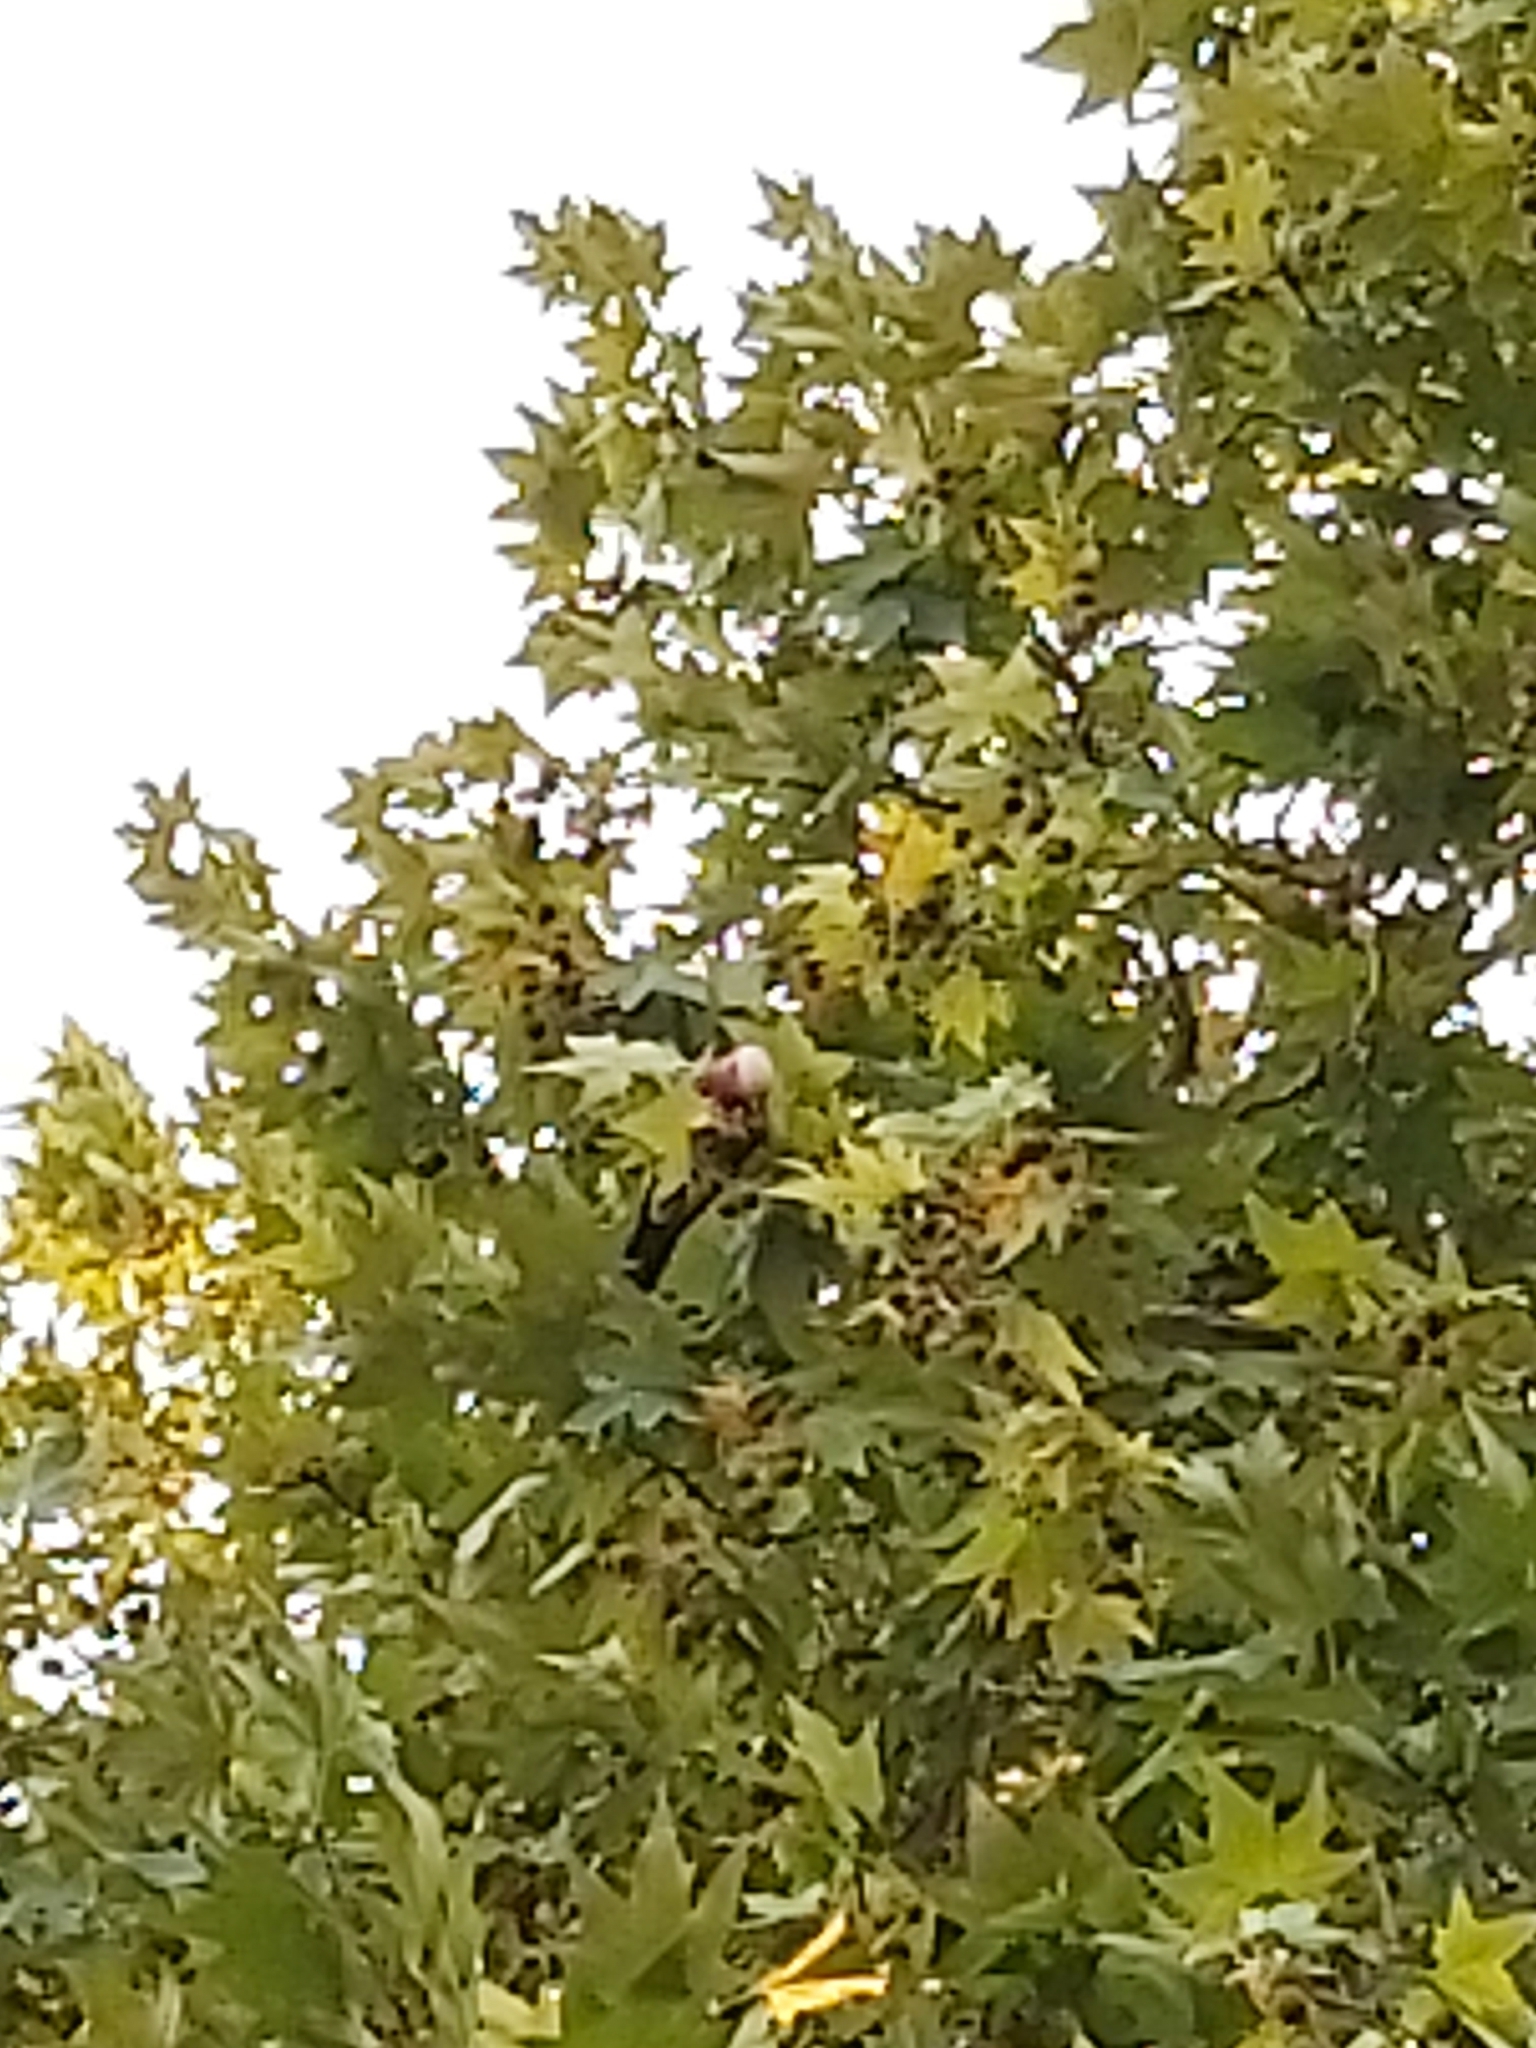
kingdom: Animalia
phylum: Chordata
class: Aves
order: Psittaciformes
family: Psittacidae
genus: Eolophus
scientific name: Eolophus roseicapilla
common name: Galah
